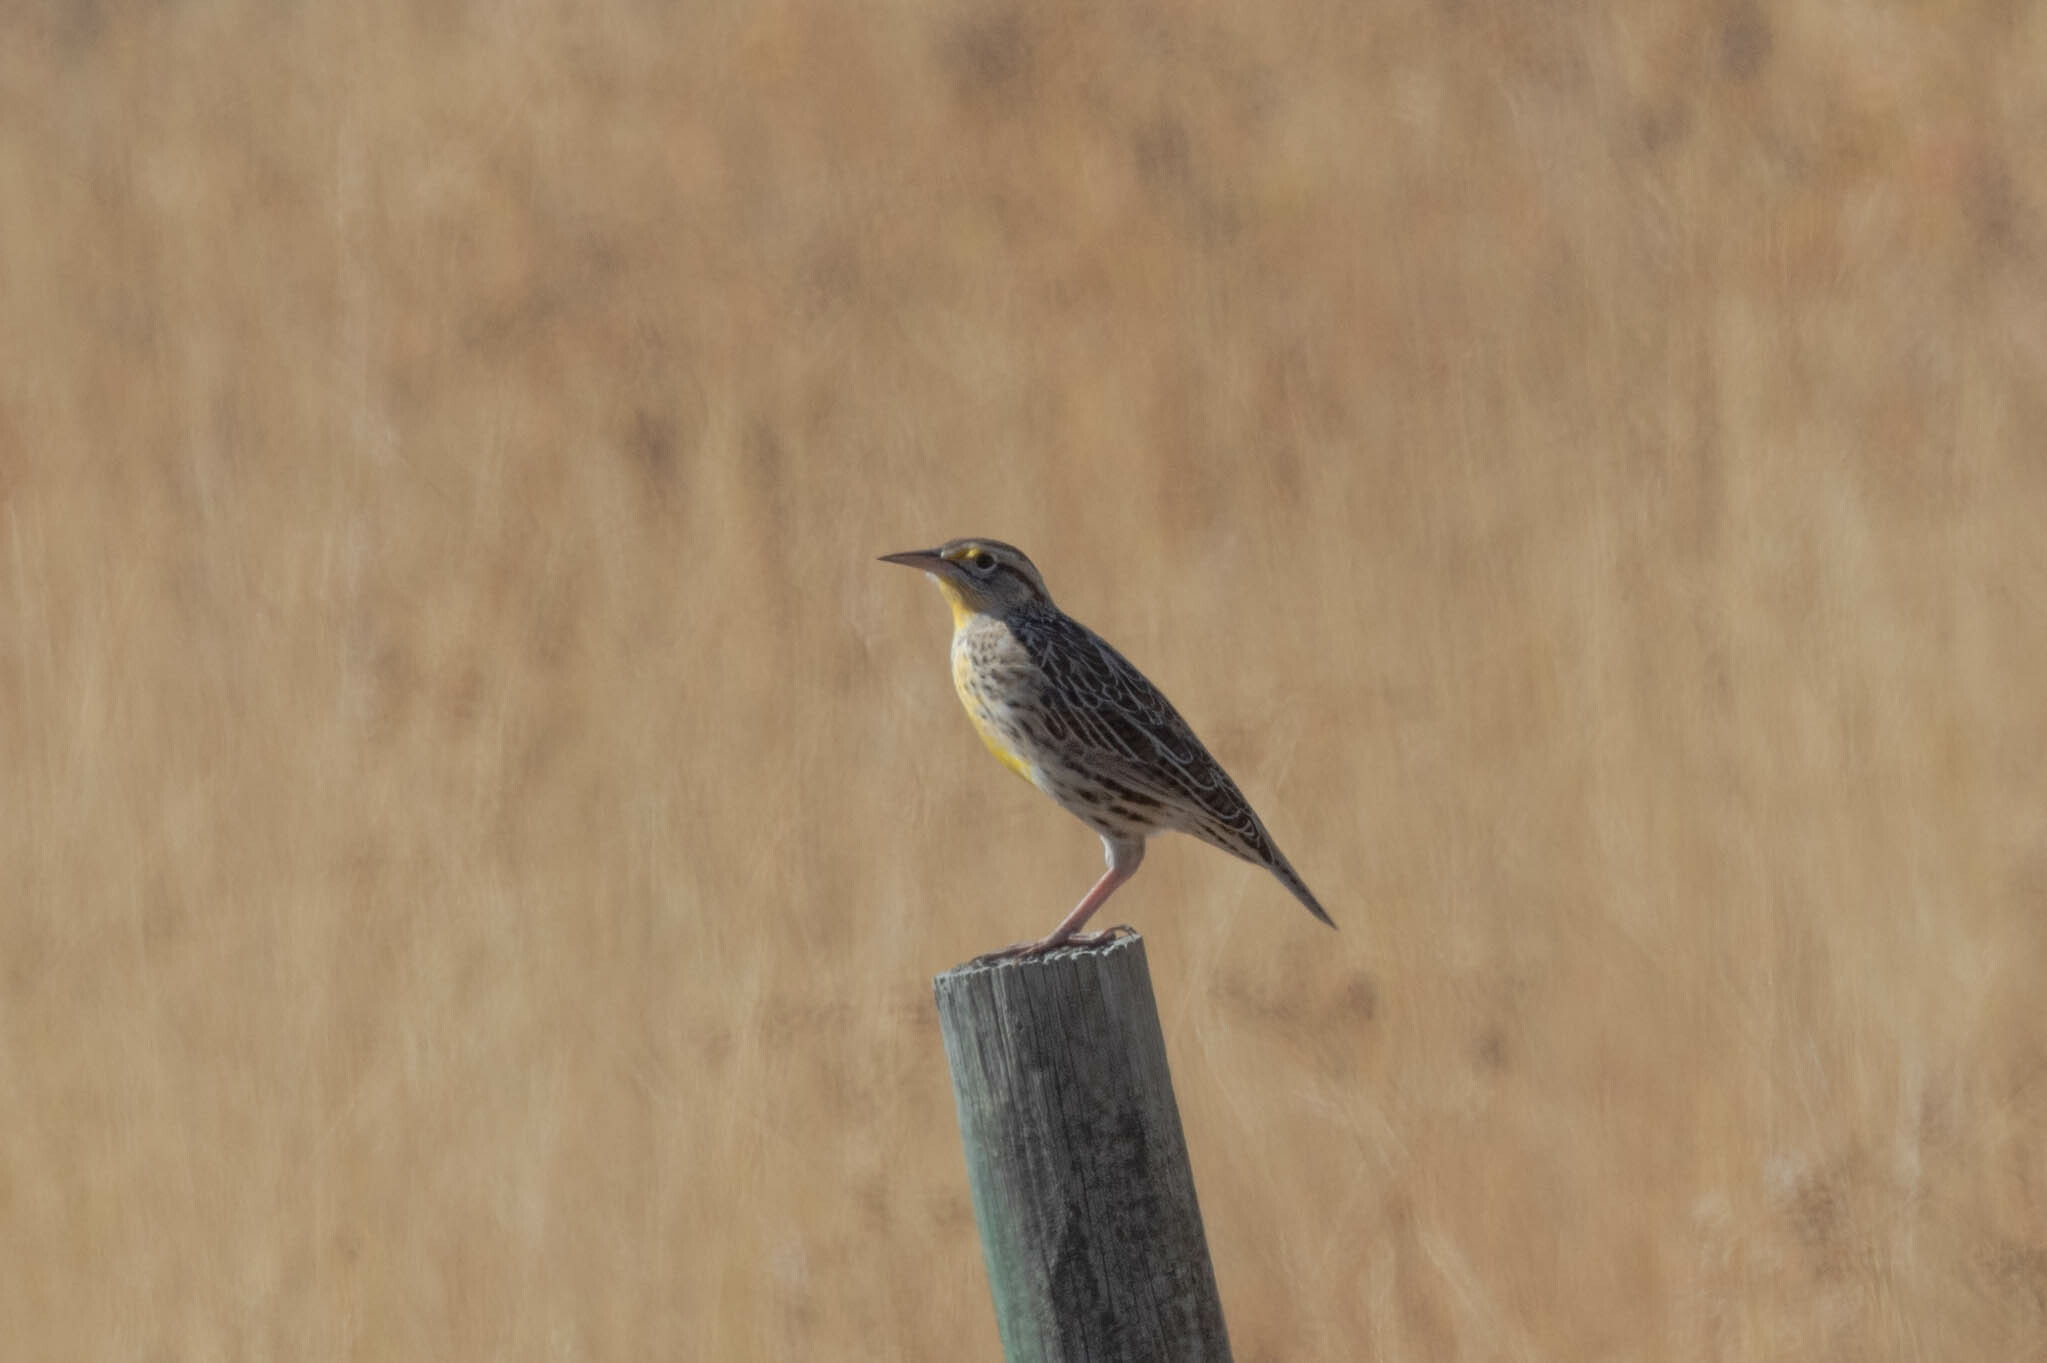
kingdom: Animalia
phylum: Chordata
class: Aves
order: Passeriformes
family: Icteridae
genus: Sturnella
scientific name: Sturnella neglecta
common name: Western meadowlark
